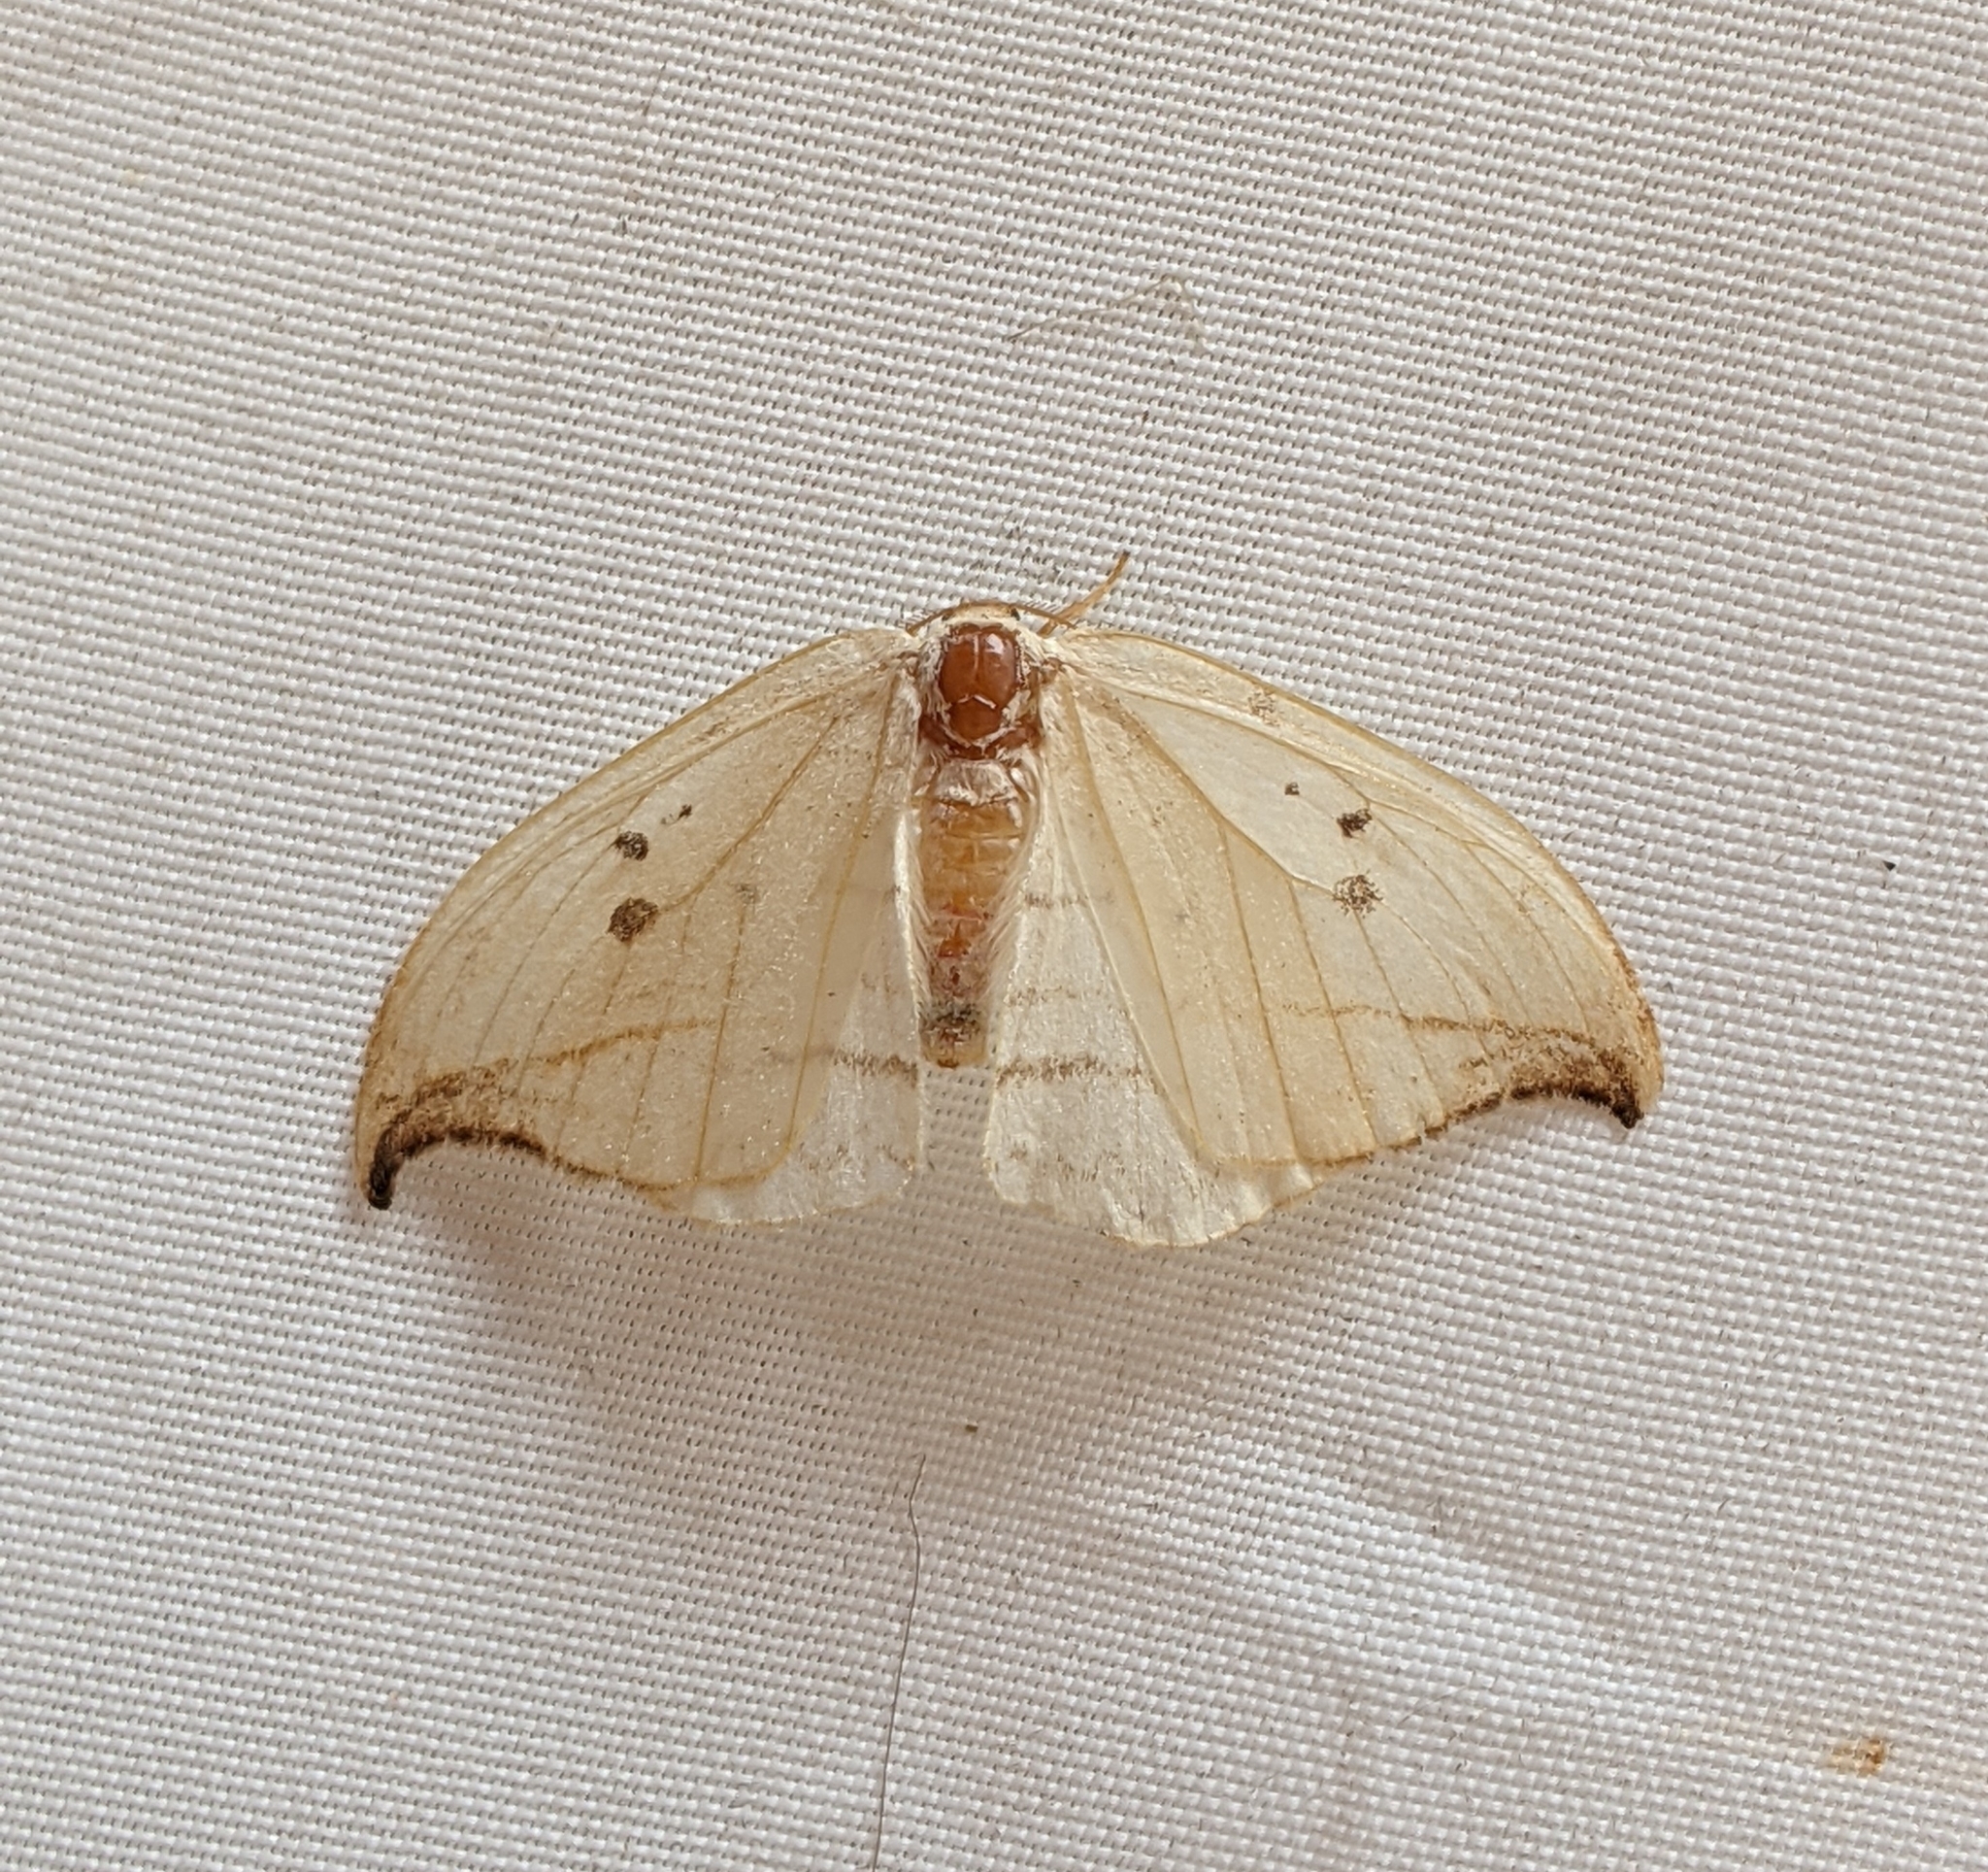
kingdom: Animalia
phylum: Arthropoda
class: Insecta
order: Lepidoptera
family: Drepanidae
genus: Drepana
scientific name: Drepana arcuata
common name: Arched hooktip moth
